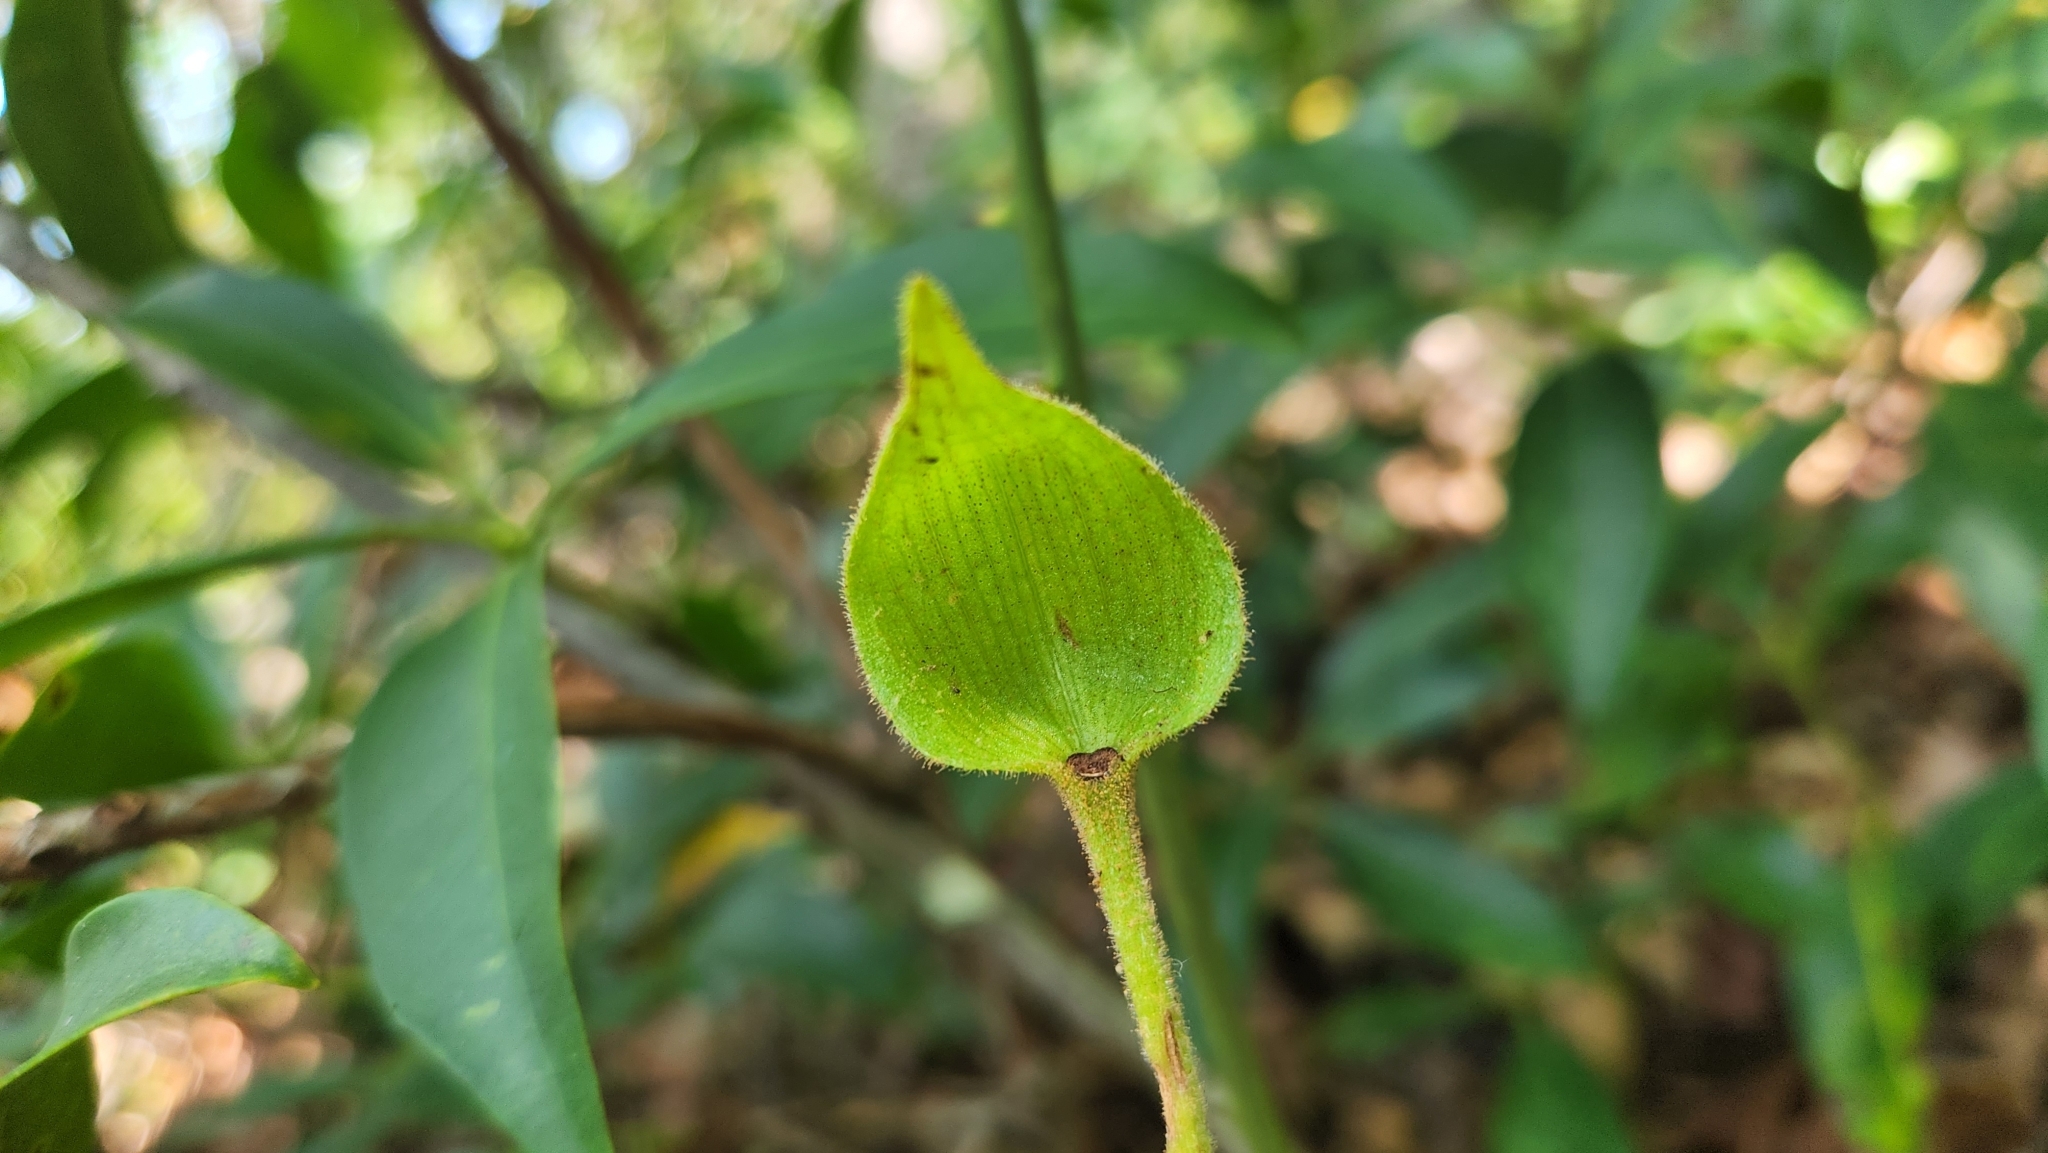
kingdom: Plantae
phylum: Tracheophyta
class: Liliopsida
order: Asparagales
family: Orchidaceae
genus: Cypripedium
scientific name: Cypripedium acaule
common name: Pink lady's-slipper
